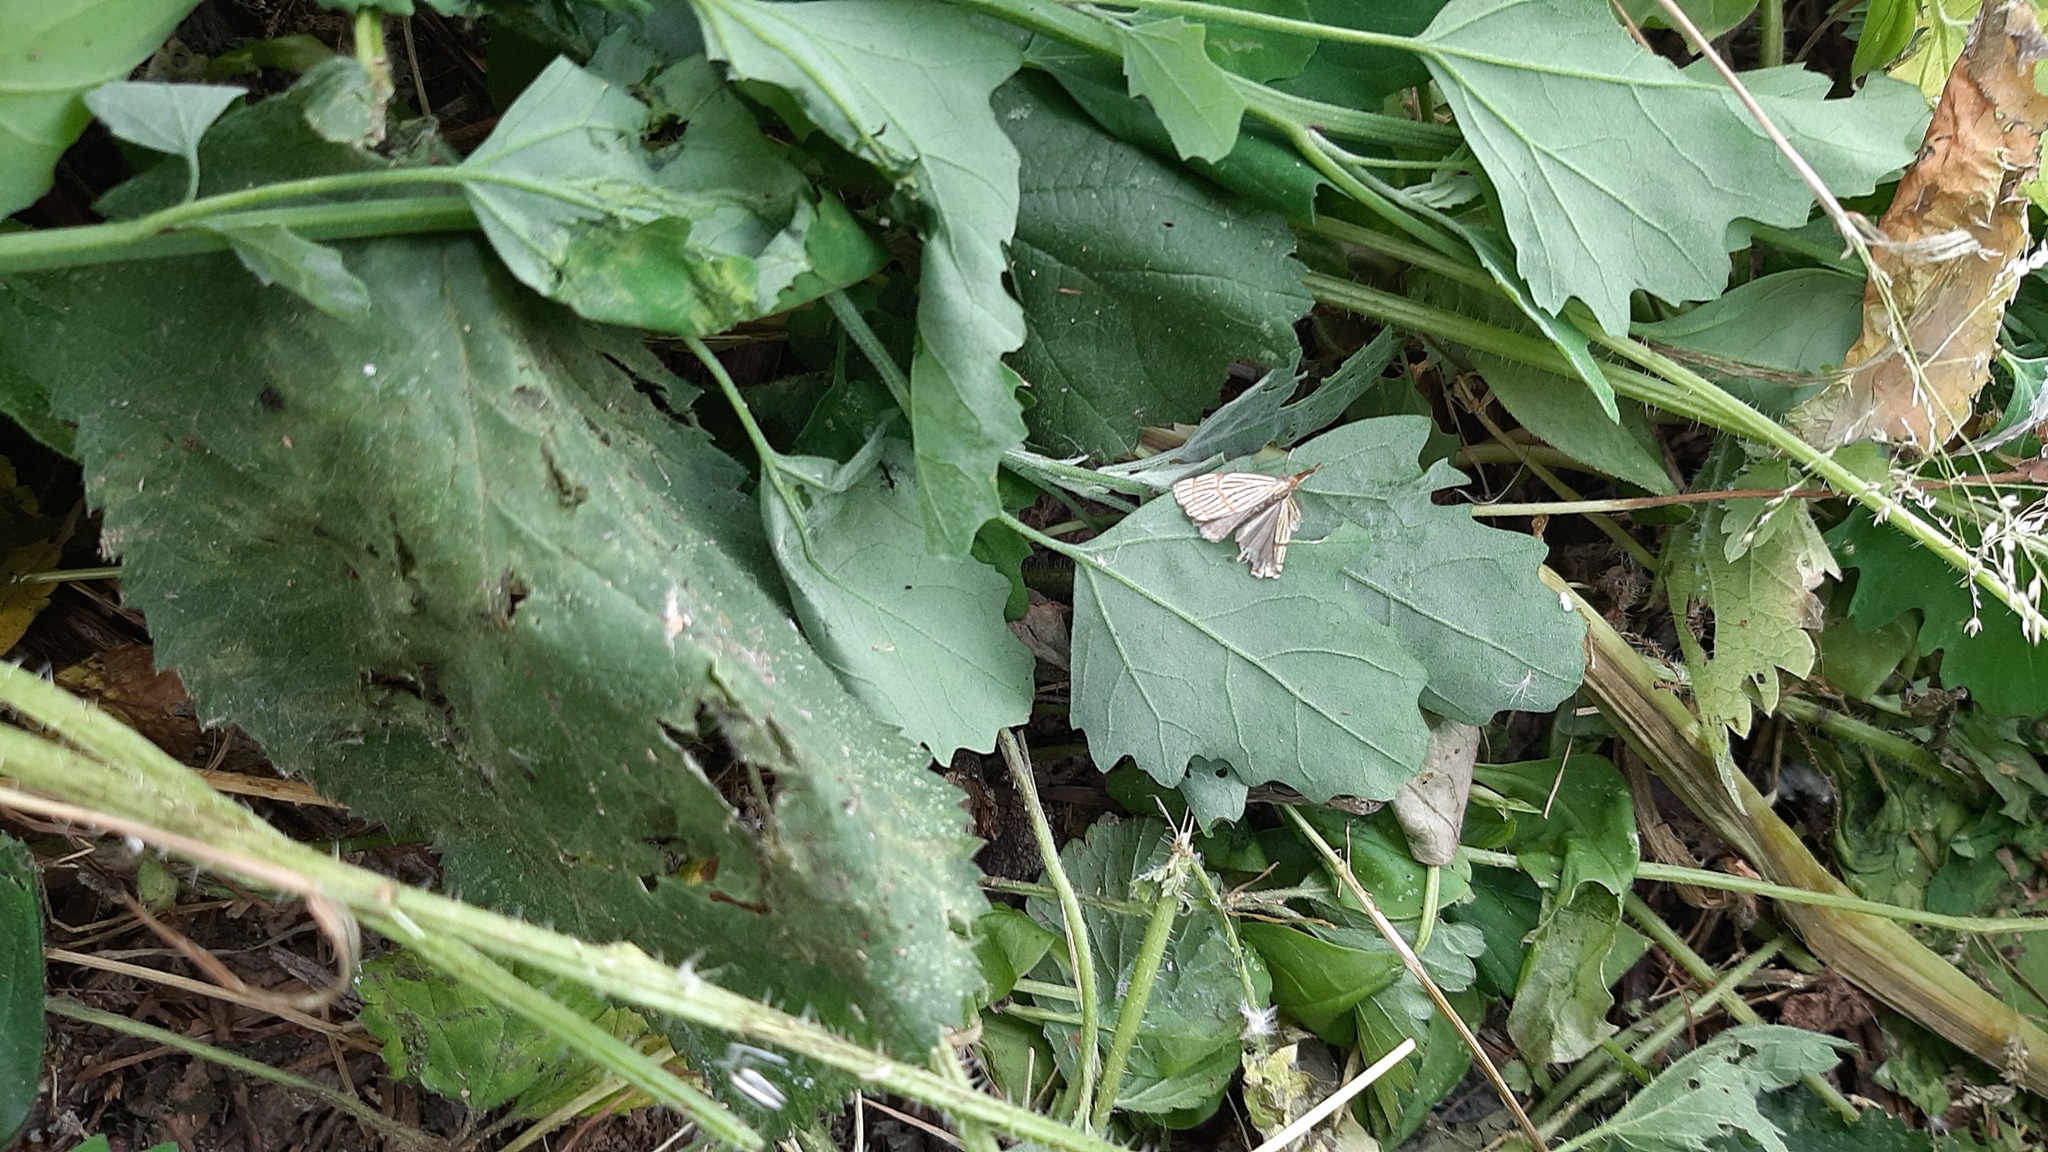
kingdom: Animalia
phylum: Arthropoda
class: Insecta
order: Lepidoptera
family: Crambidae
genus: Chrysocrambus
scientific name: Chrysocrambus linetella
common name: Orange-bar grass-veneer
